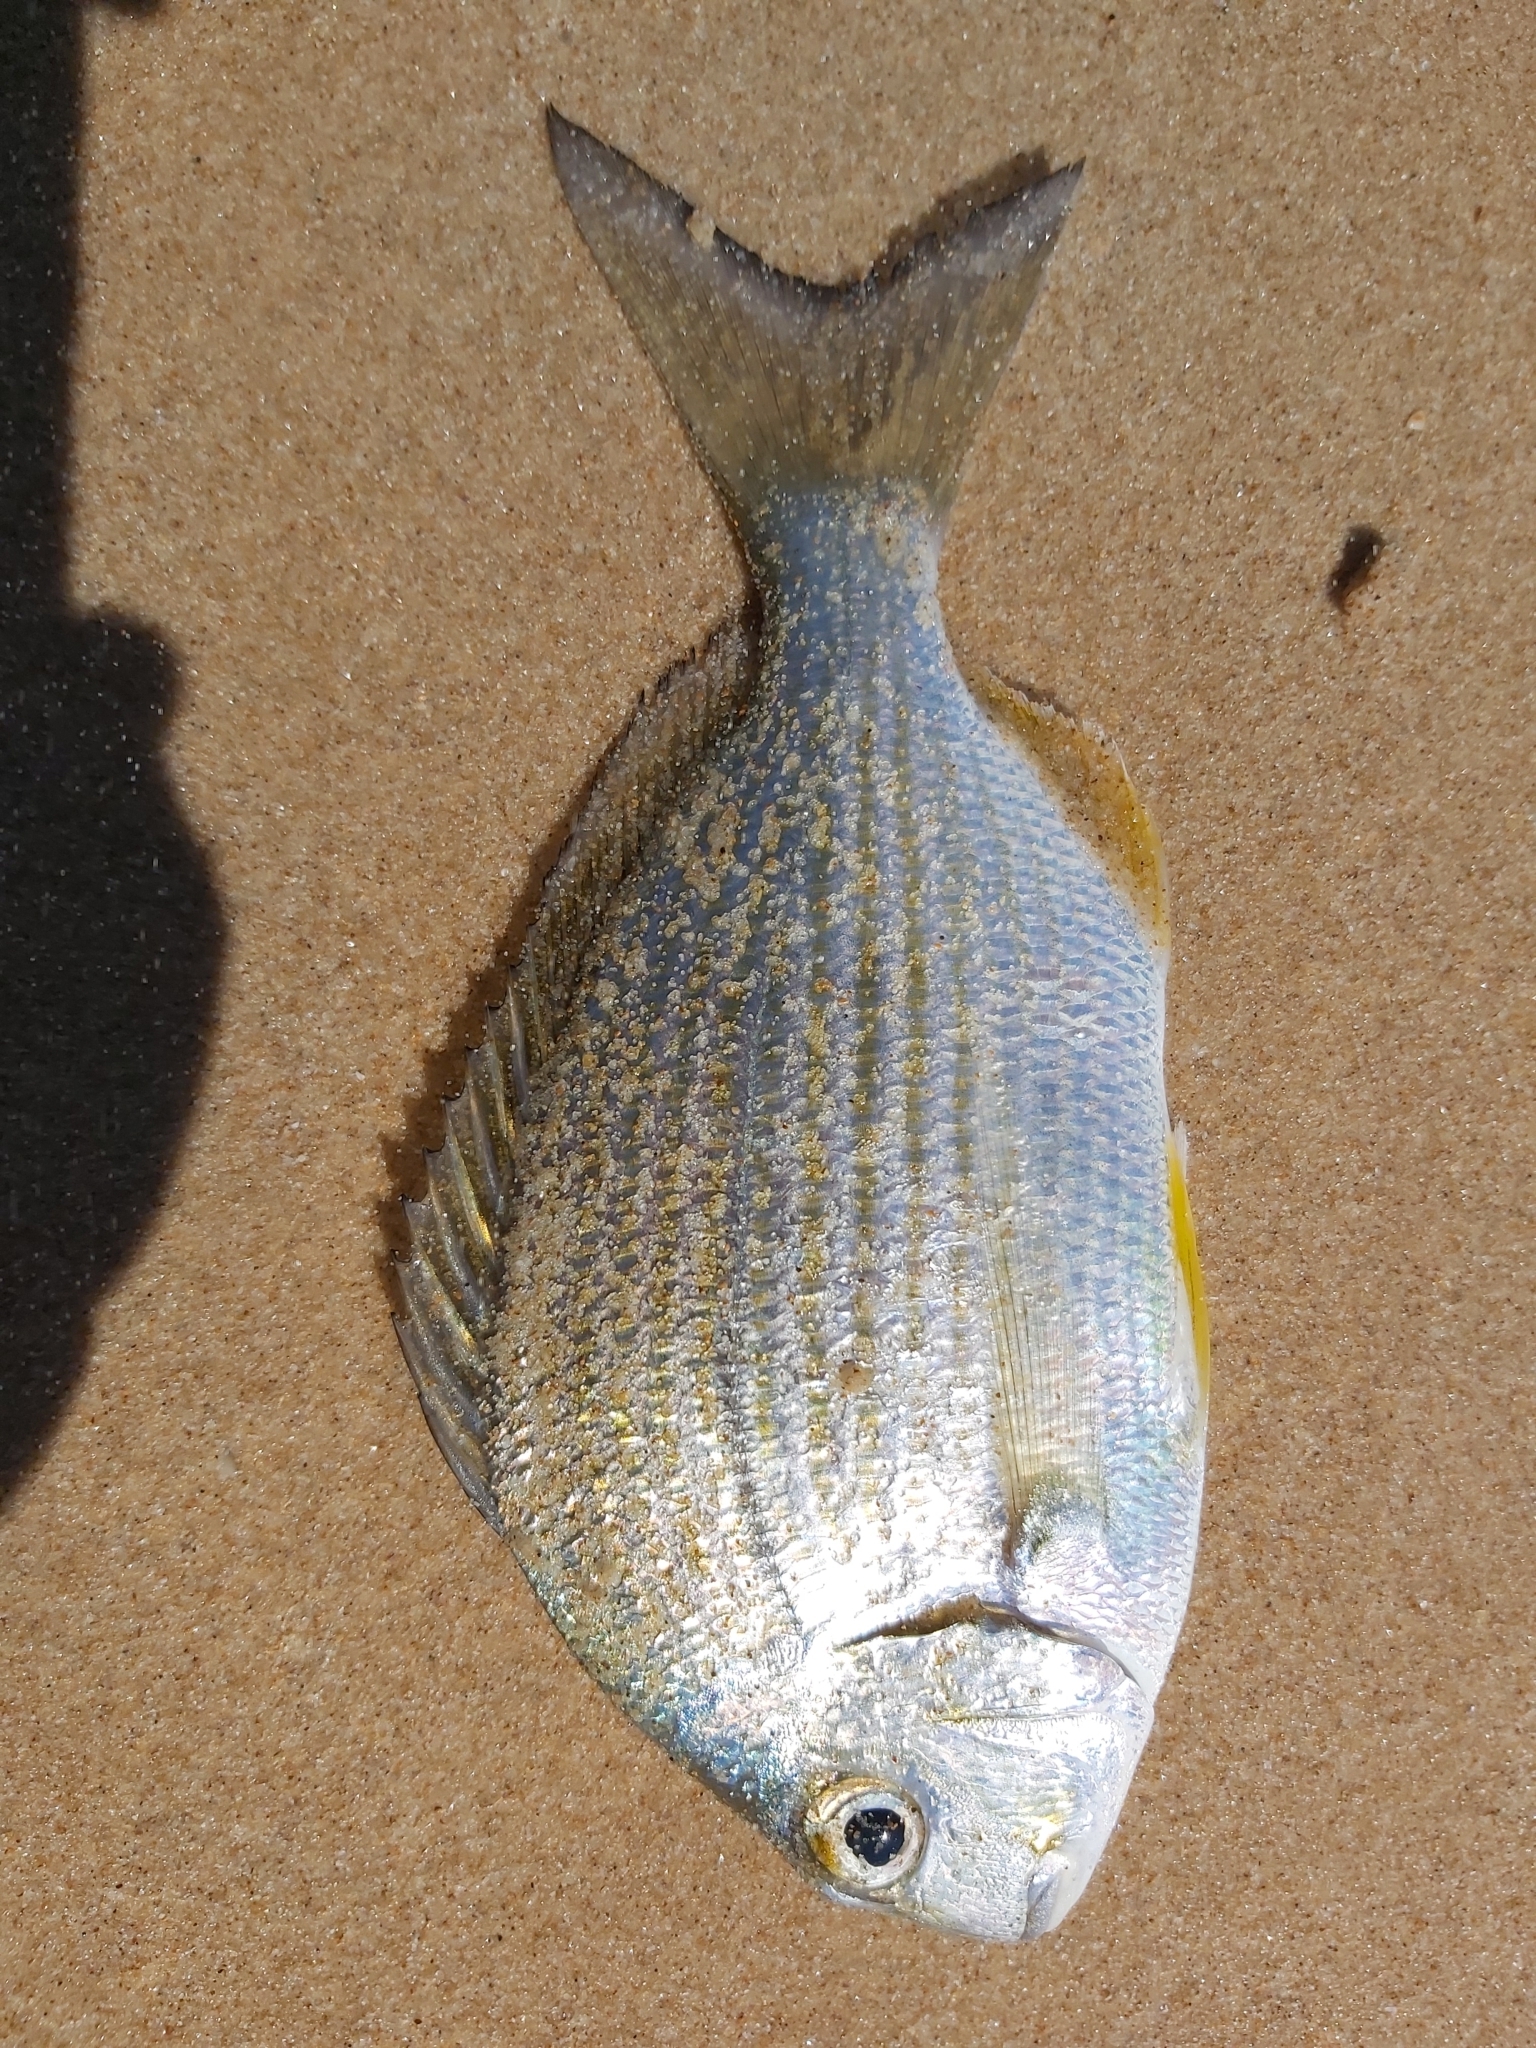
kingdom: Animalia
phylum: Chordata
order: Perciformes
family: Sparidae
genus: Rhabdosargus
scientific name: Rhabdosargus sarba
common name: Goldlined seabream
